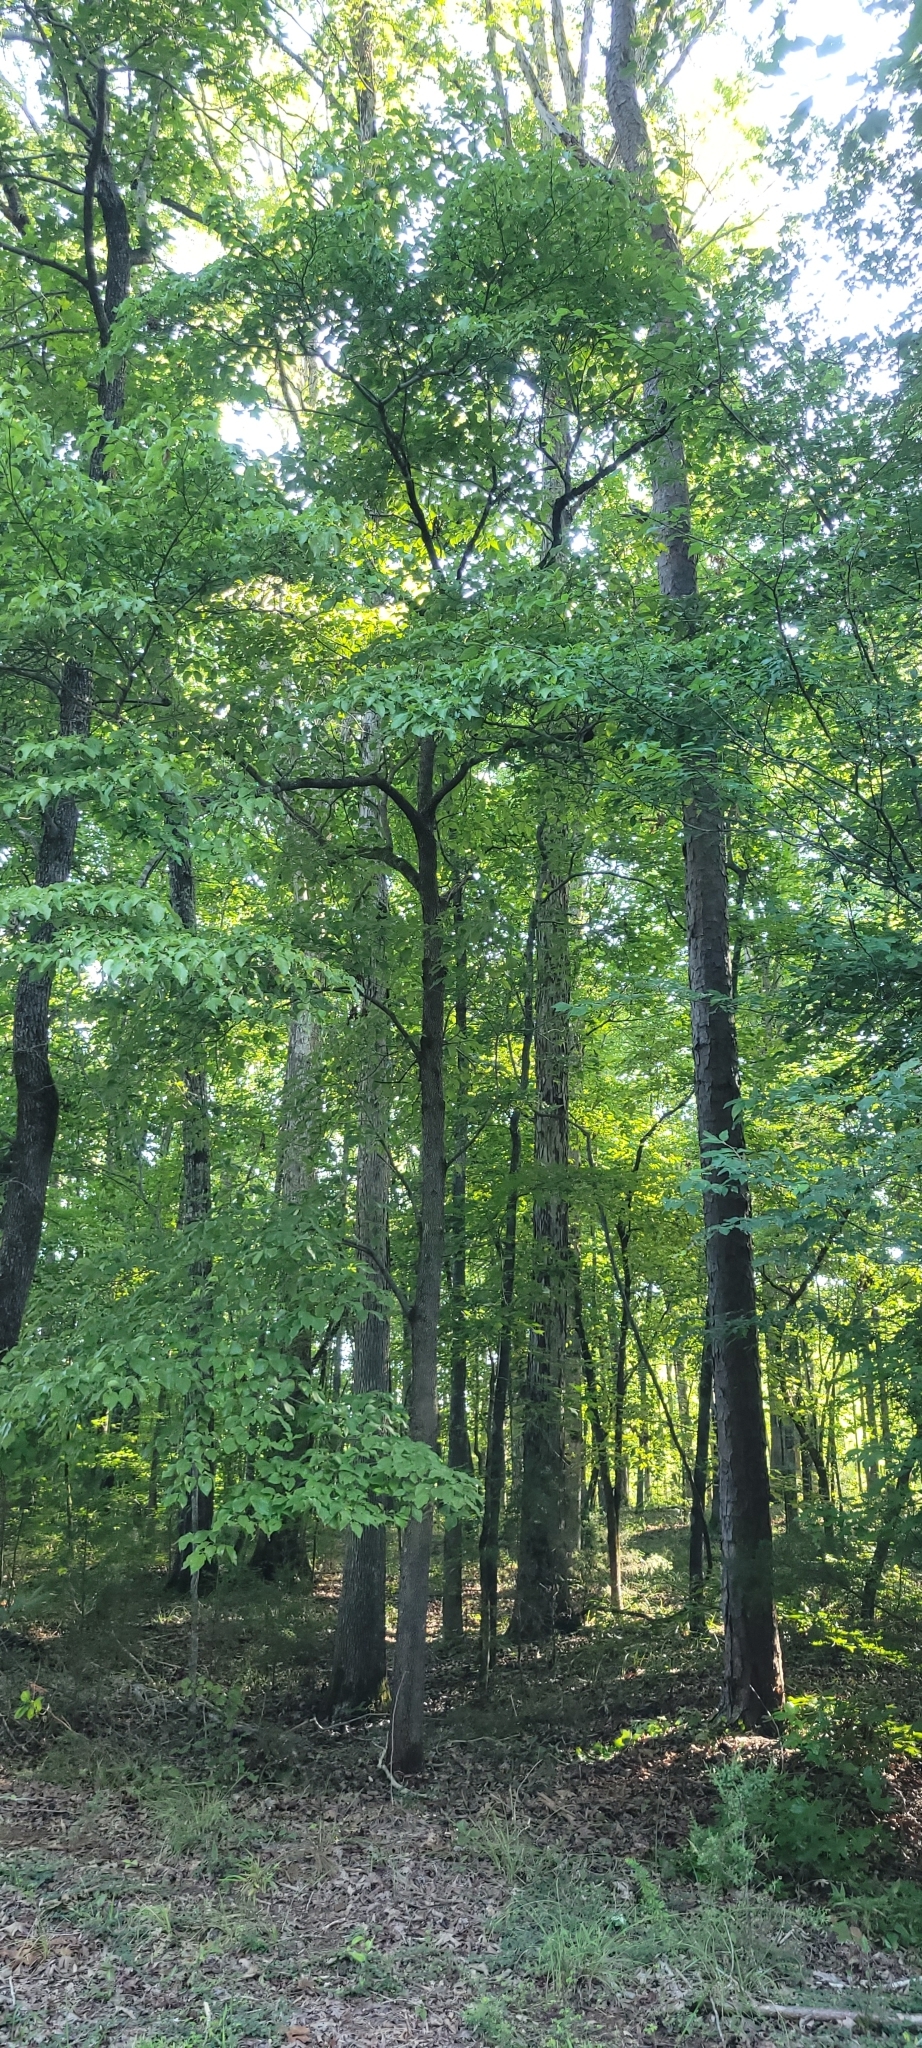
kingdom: Plantae
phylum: Tracheophyta
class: Magnoliopsida
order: Cornales
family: Cornaceae
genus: Cornus
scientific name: Cornus florida
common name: Flowering dogwood
